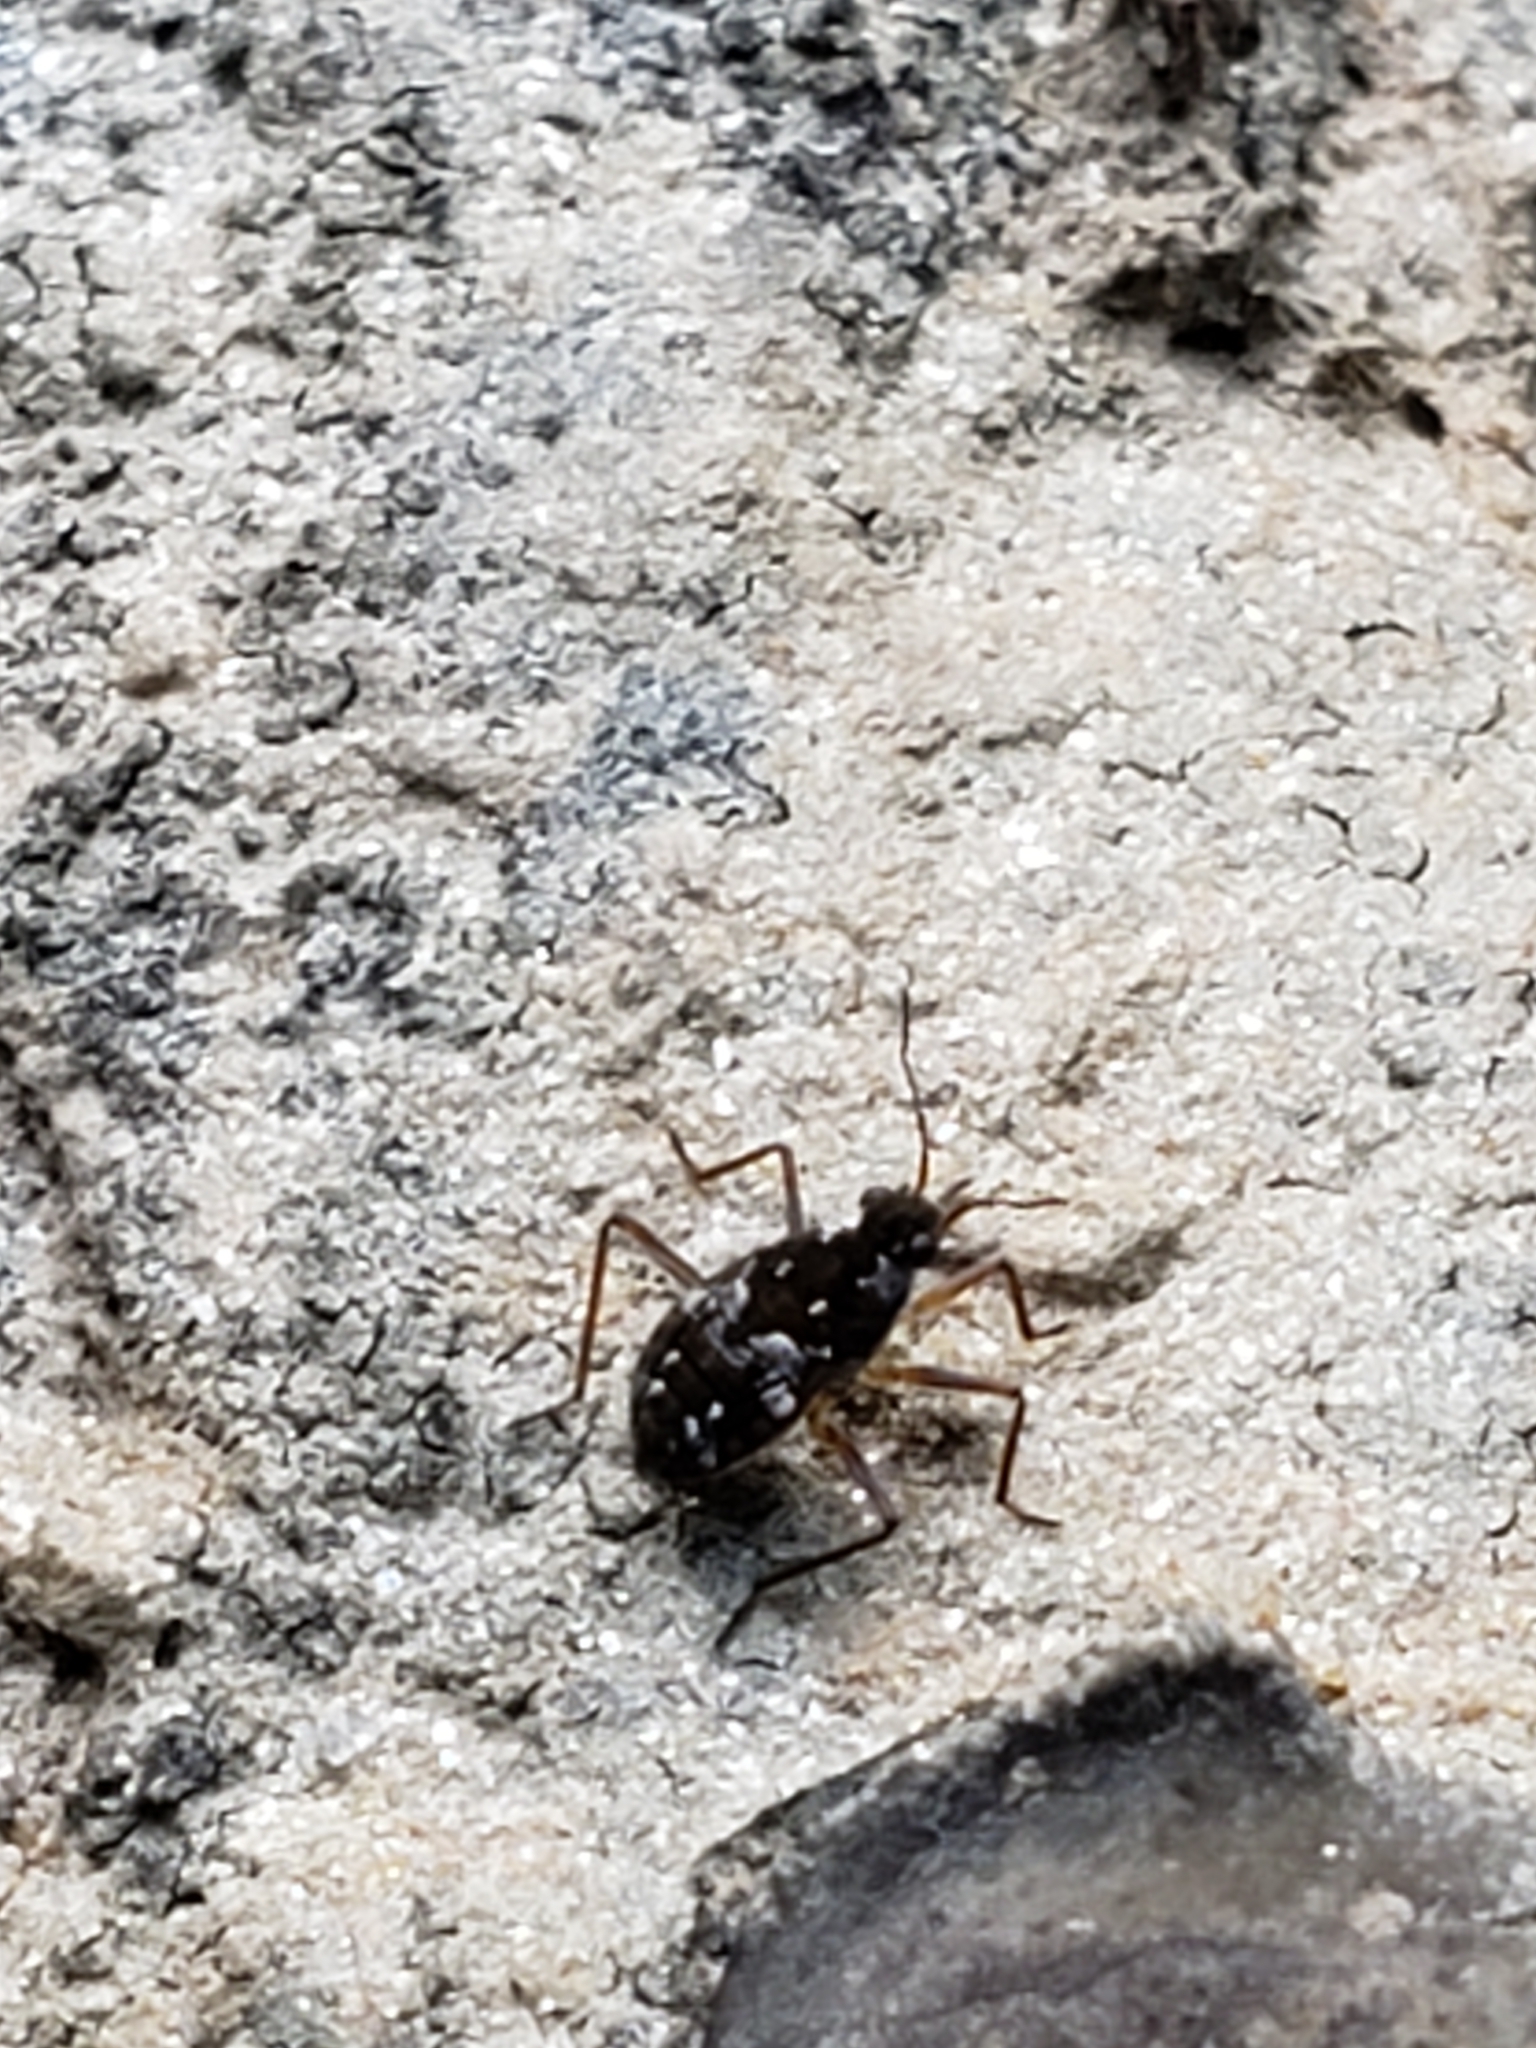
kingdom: Animalia
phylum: Arthropoda
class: Insecta
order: Hemiptera
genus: Kirkaldya
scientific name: Kirkaldya
